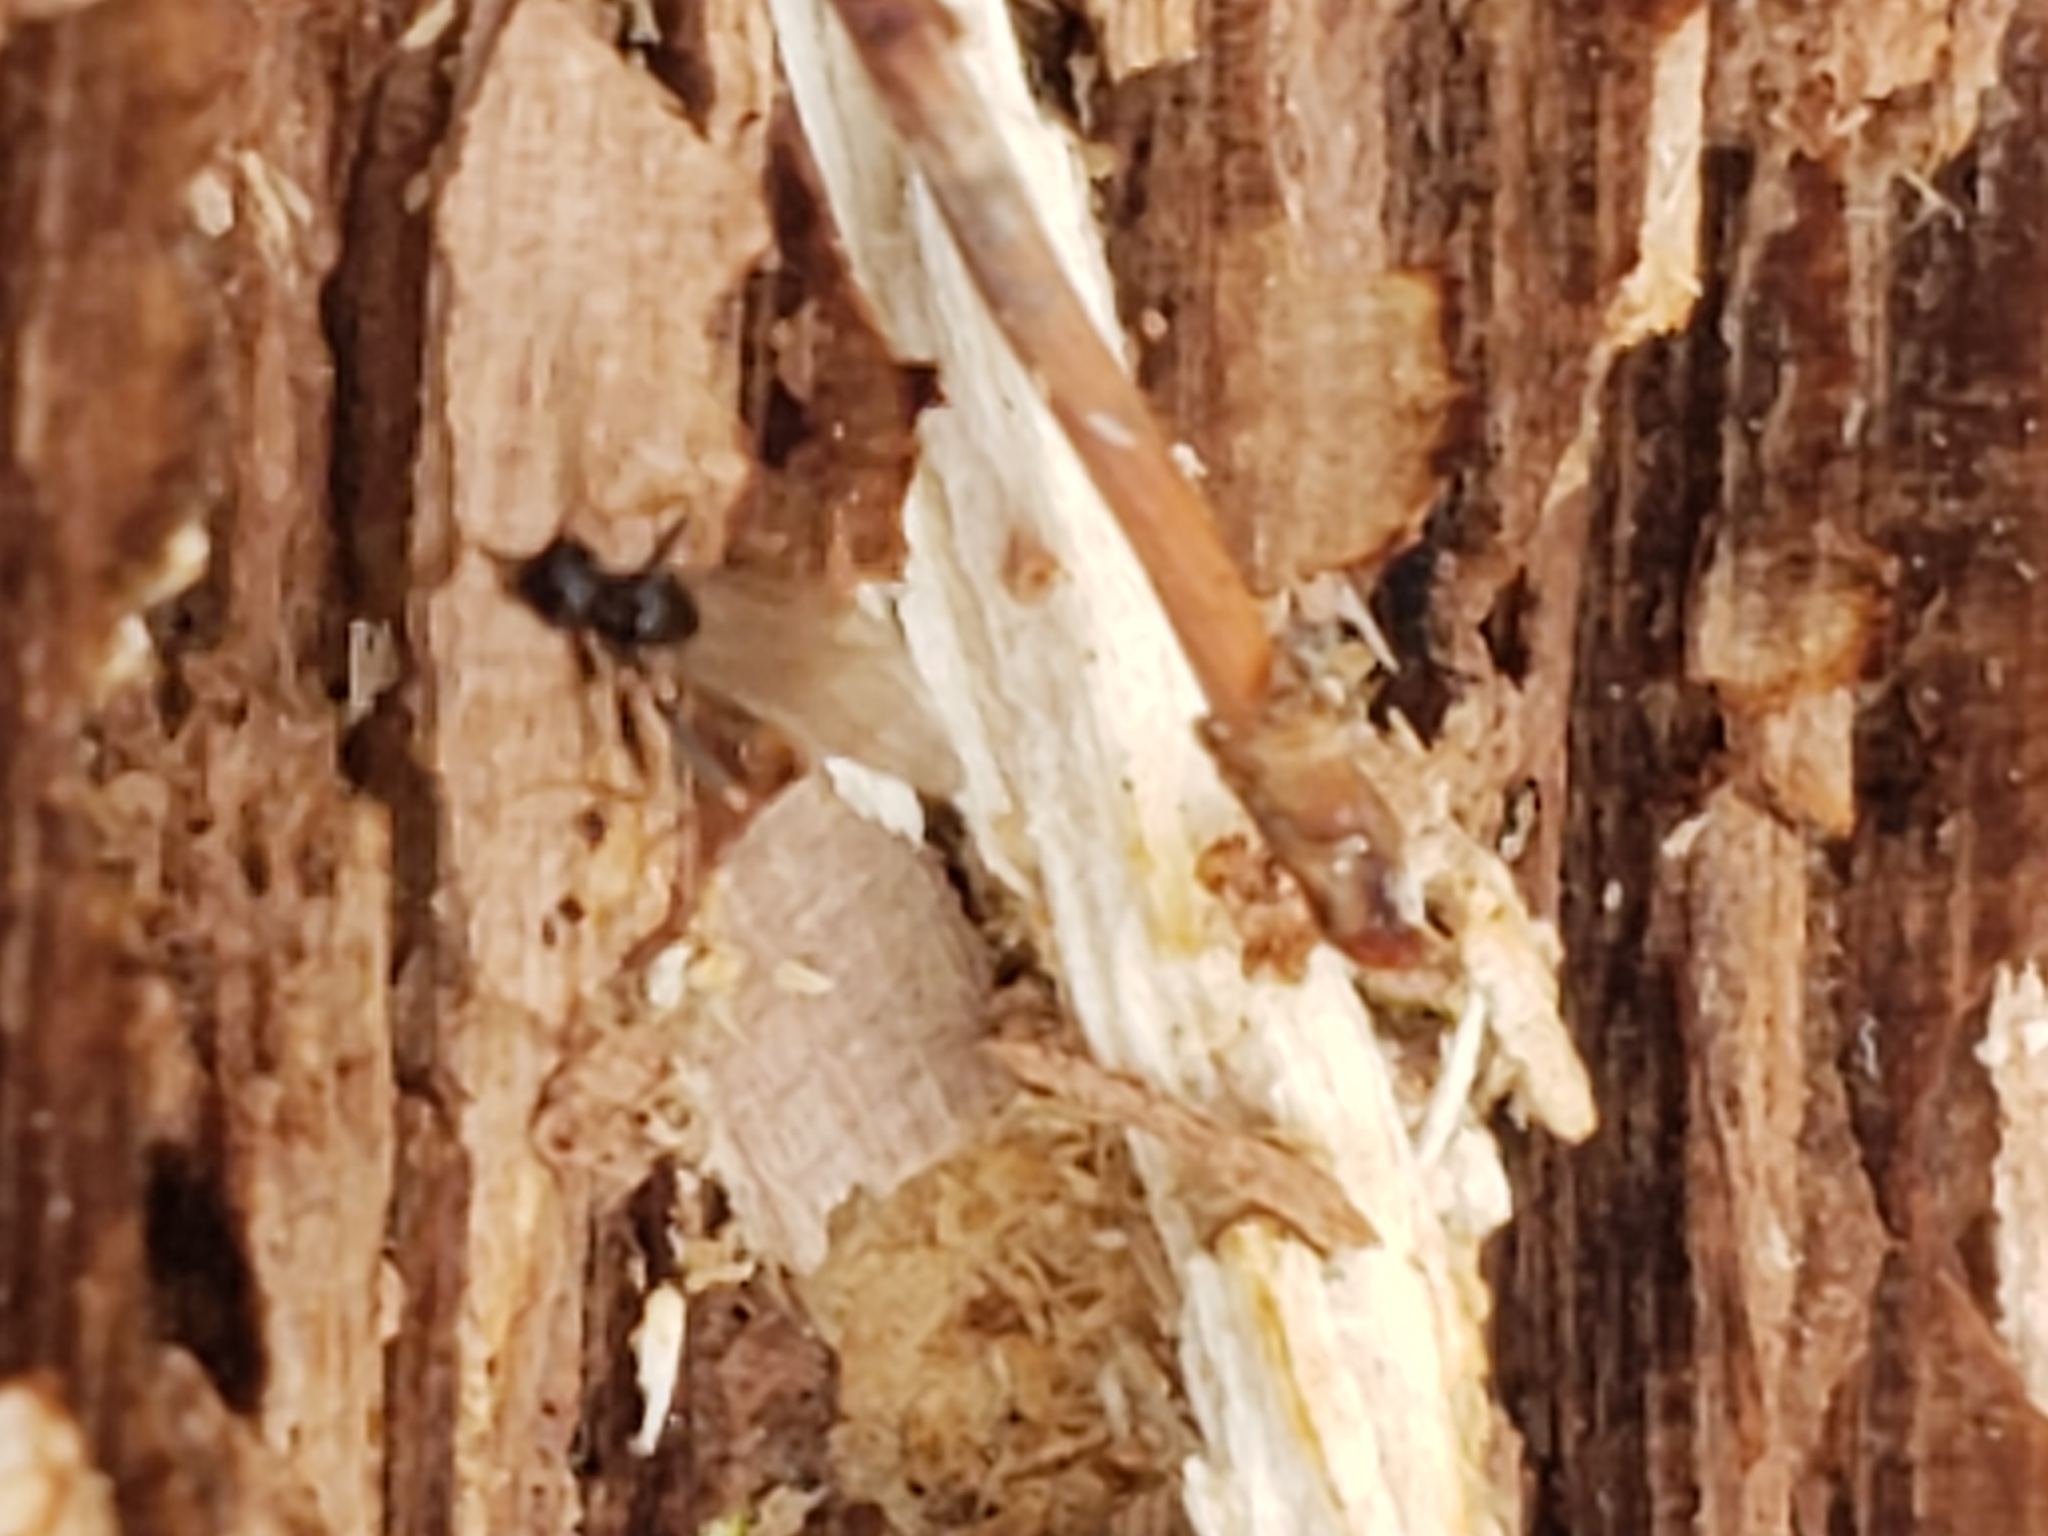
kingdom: Animalia
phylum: Arthropoda
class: Insecta
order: Hymenoptera
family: Formicidae
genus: Prenolepis
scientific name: Prenolepis imparis
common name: Small honey ant
